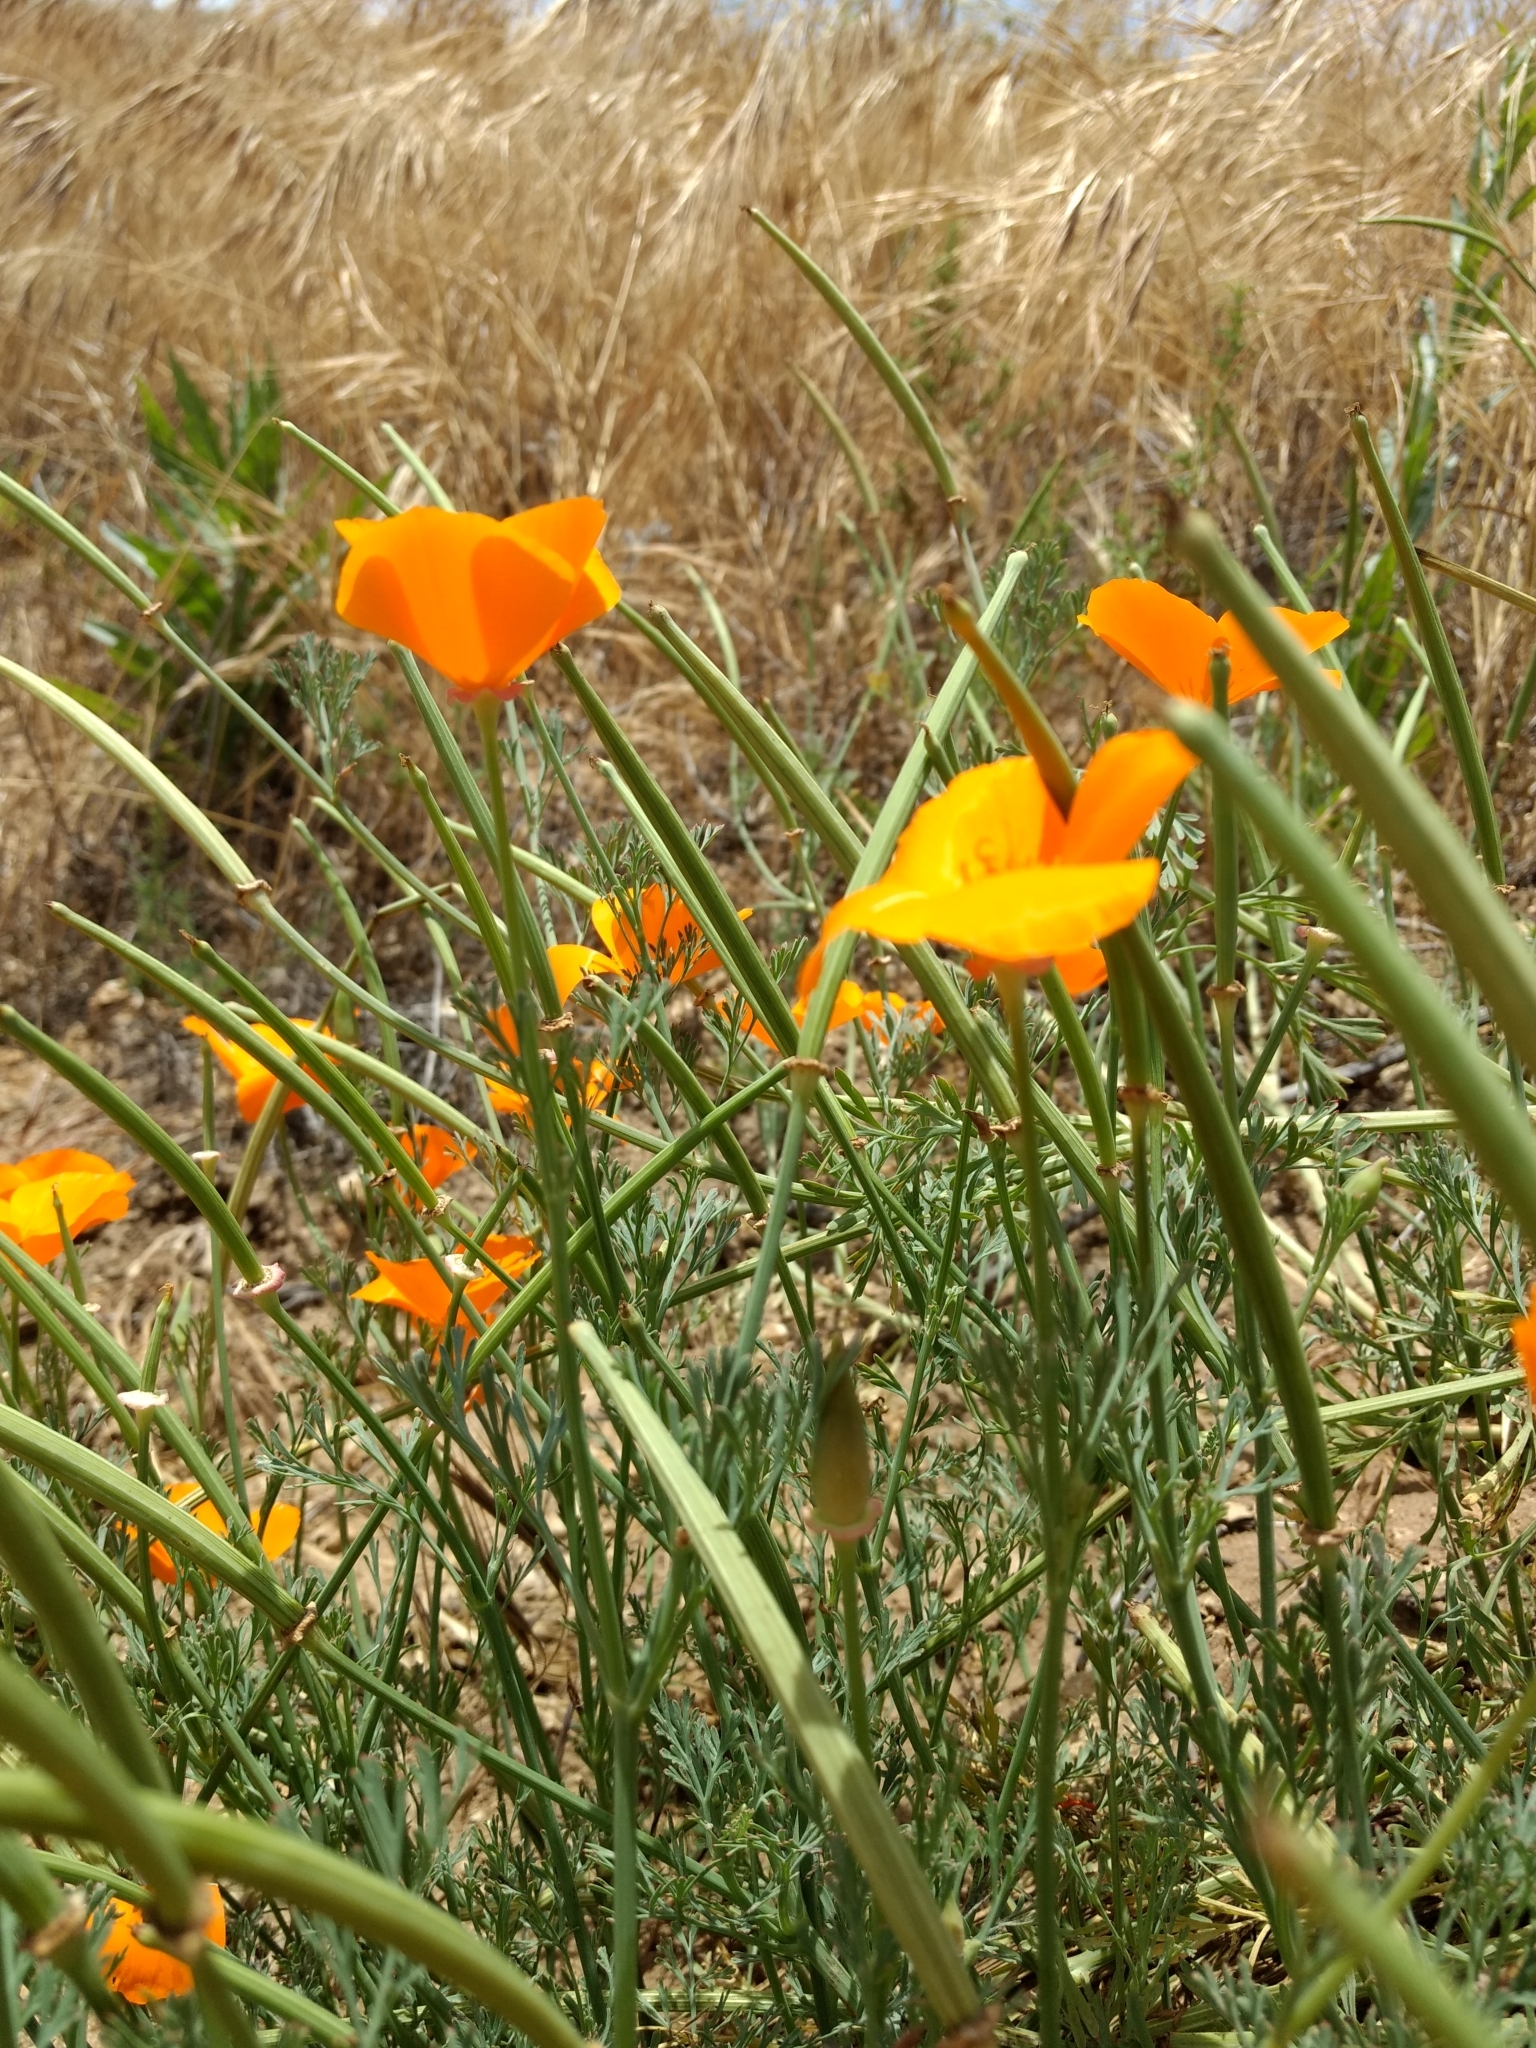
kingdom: Plantae
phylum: Tracheophyta
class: Magnoliopsida
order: Ranunculales
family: Papaveraceae
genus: Eschscholzia
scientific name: Eschscholzia californica
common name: California poppy
